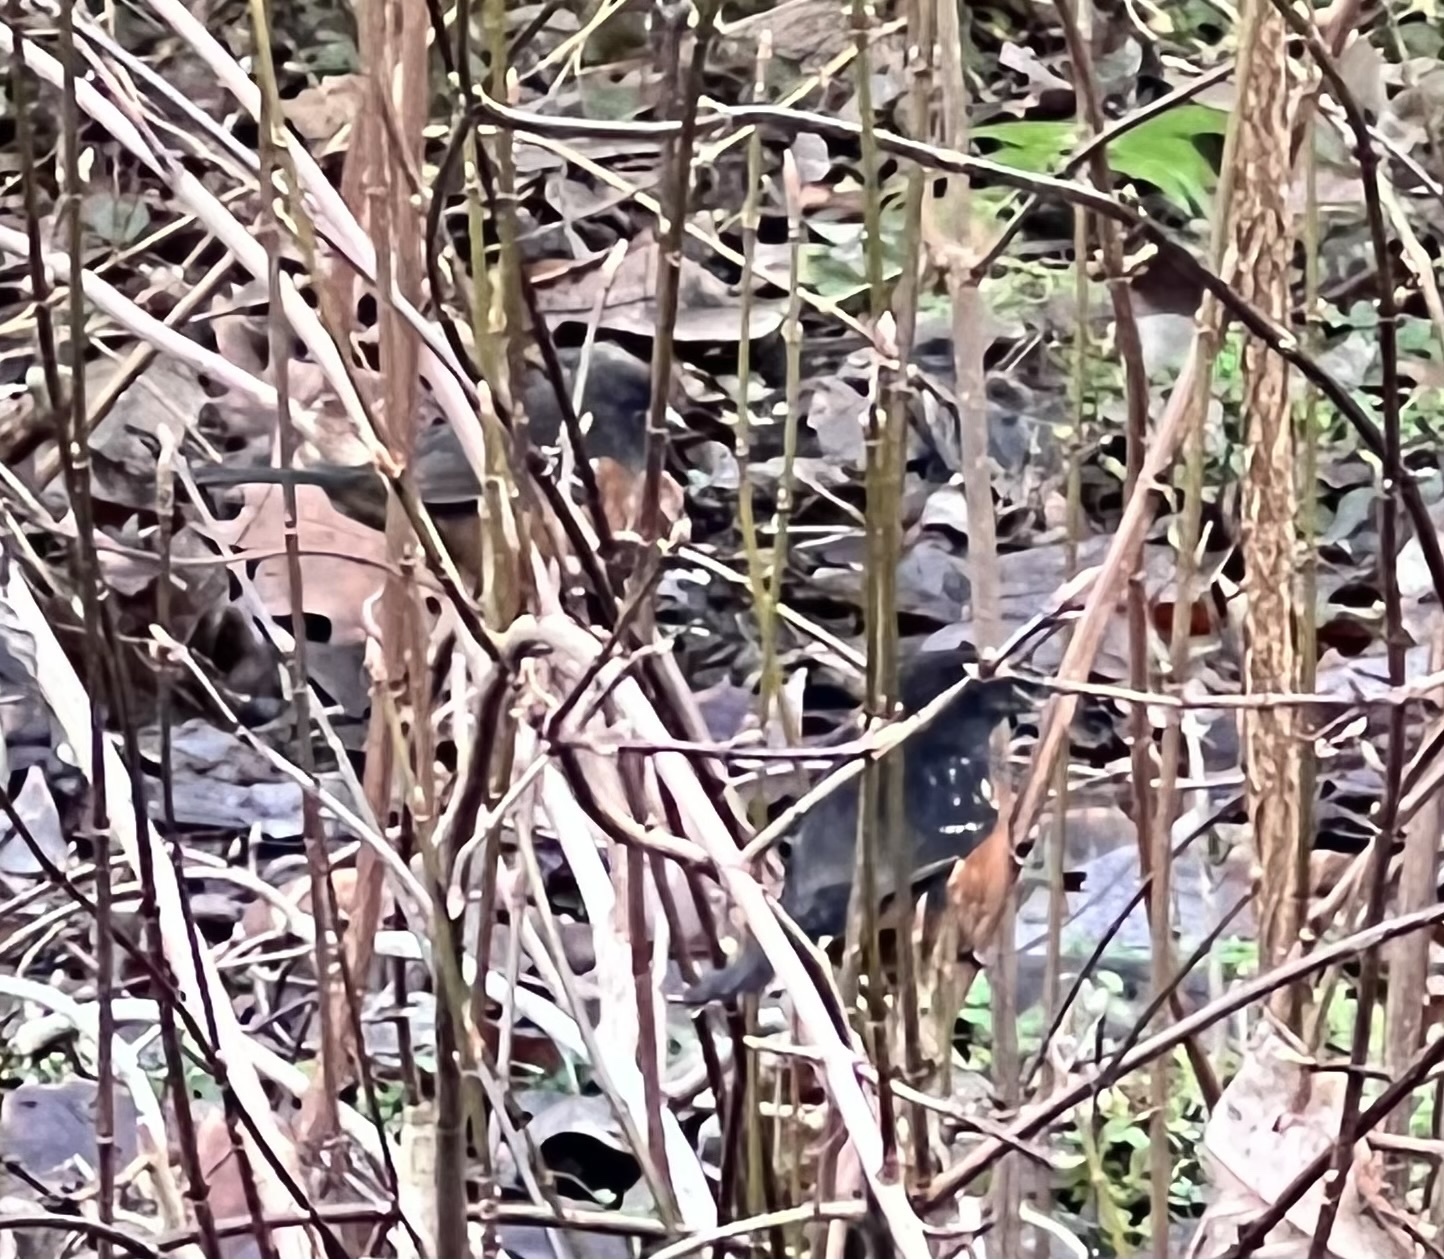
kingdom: Animalia
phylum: Chordata
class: Aves
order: Passeriformes
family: Passerellidae
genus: Pipilo
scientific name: Pipilo maculatus
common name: Spotted towhee
